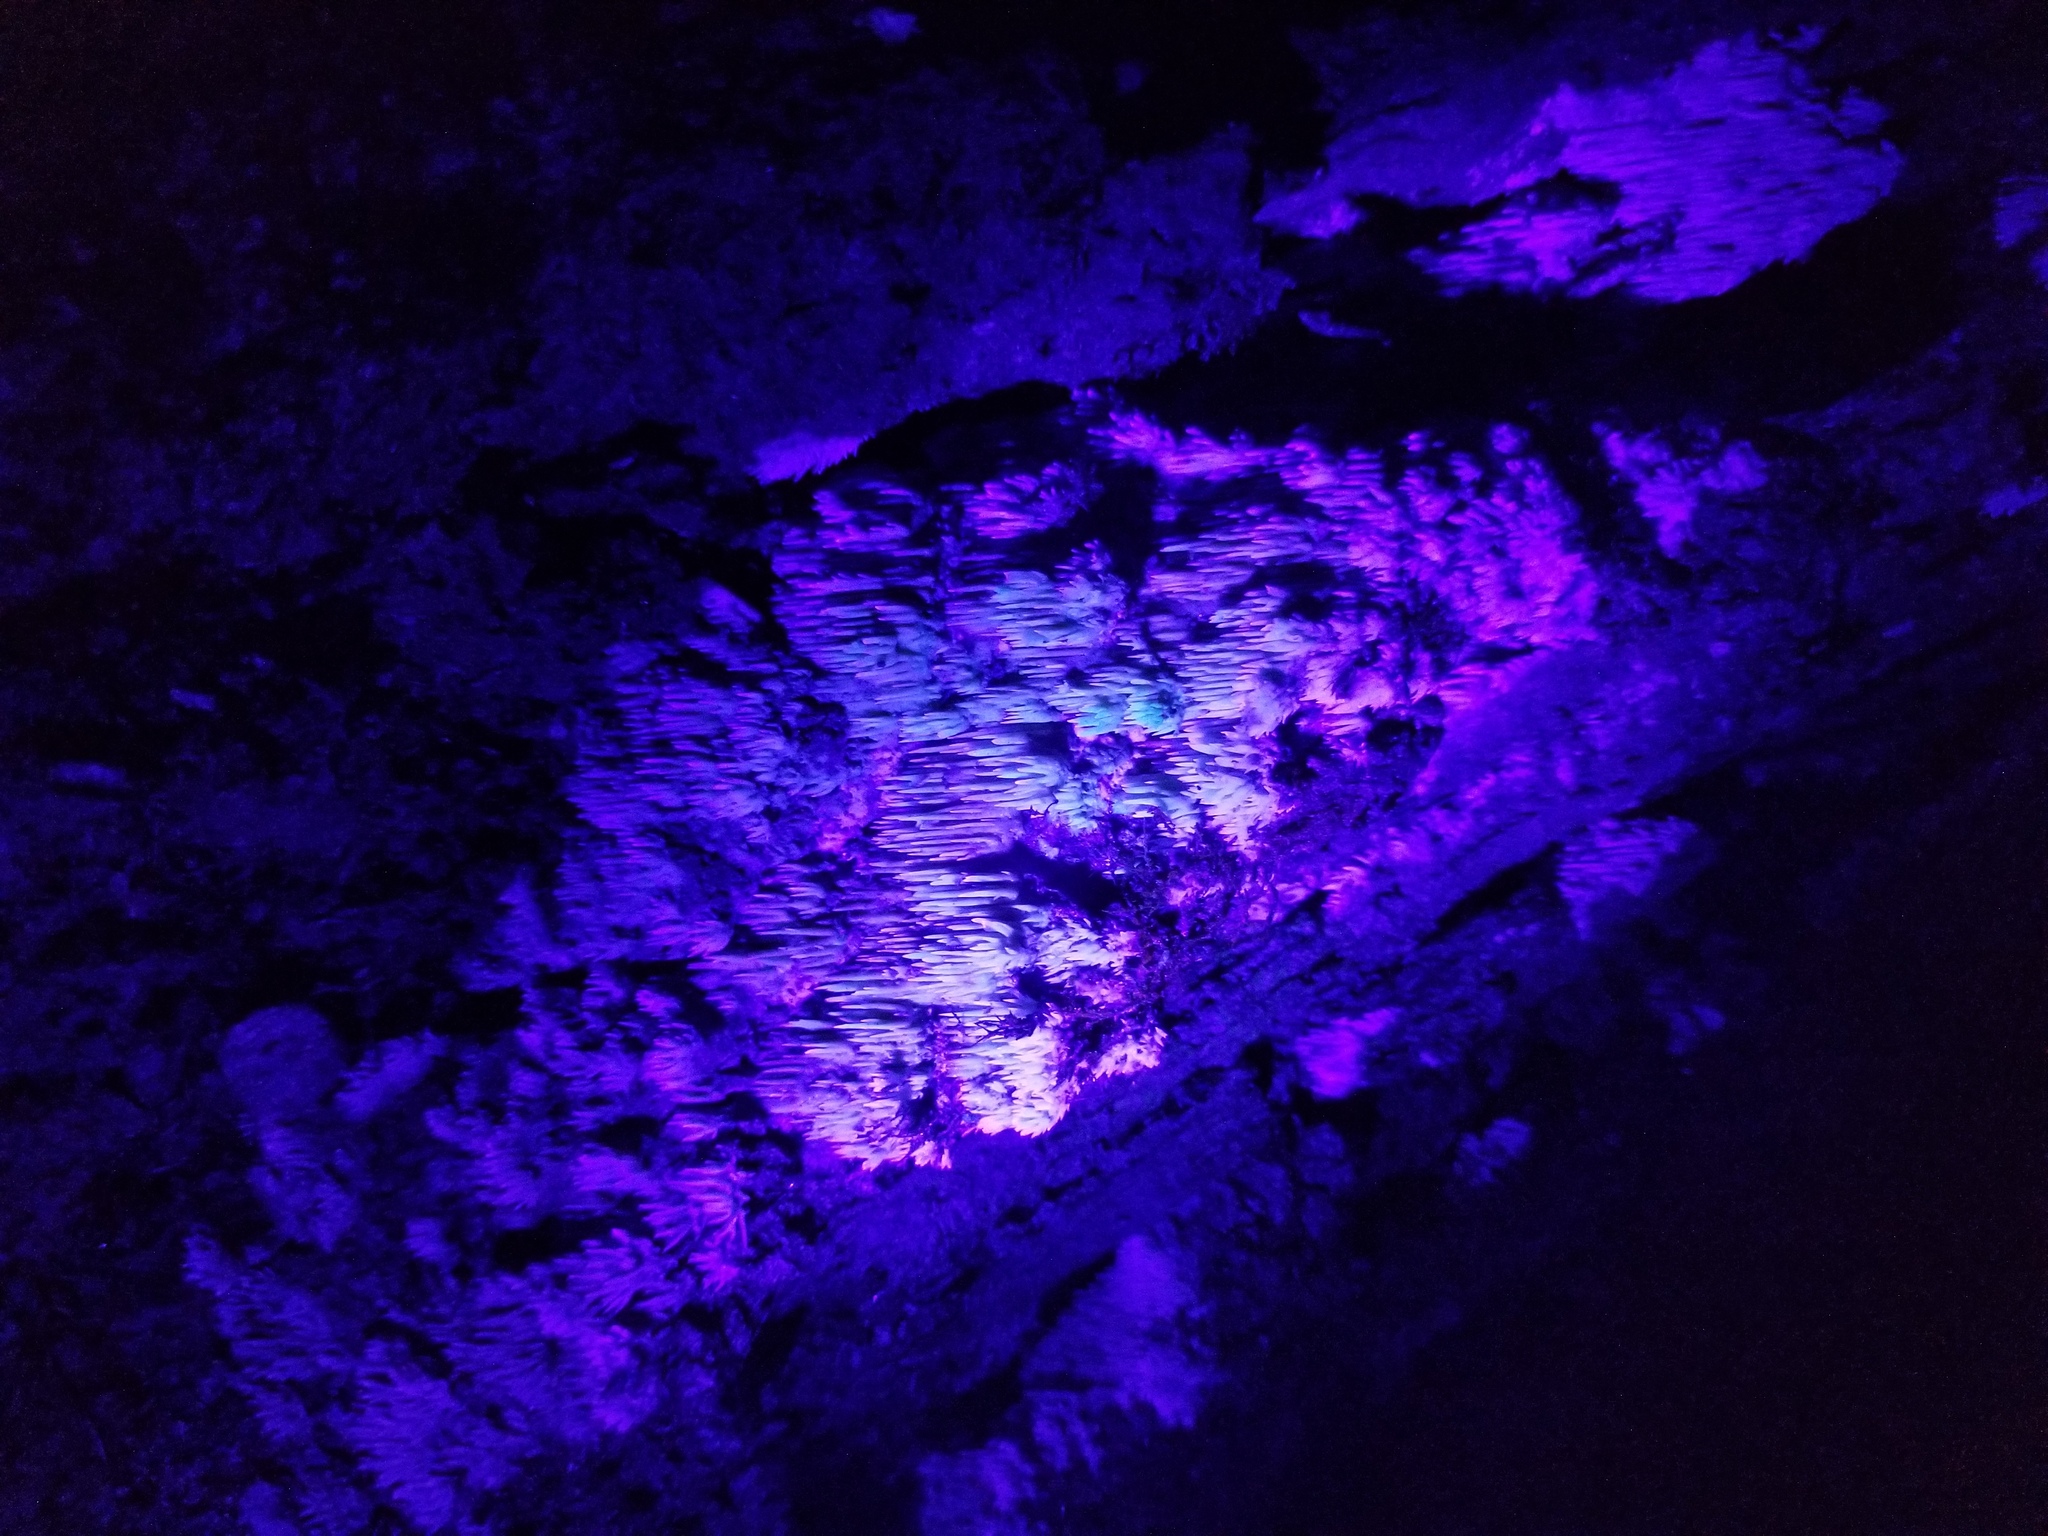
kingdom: Fungi
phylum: Basidiomycota
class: Agaricomycetes
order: Agaricales
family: Radulomycetaceae
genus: Radulomyces
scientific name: Radulomyces copelandii
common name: Asian beauty
